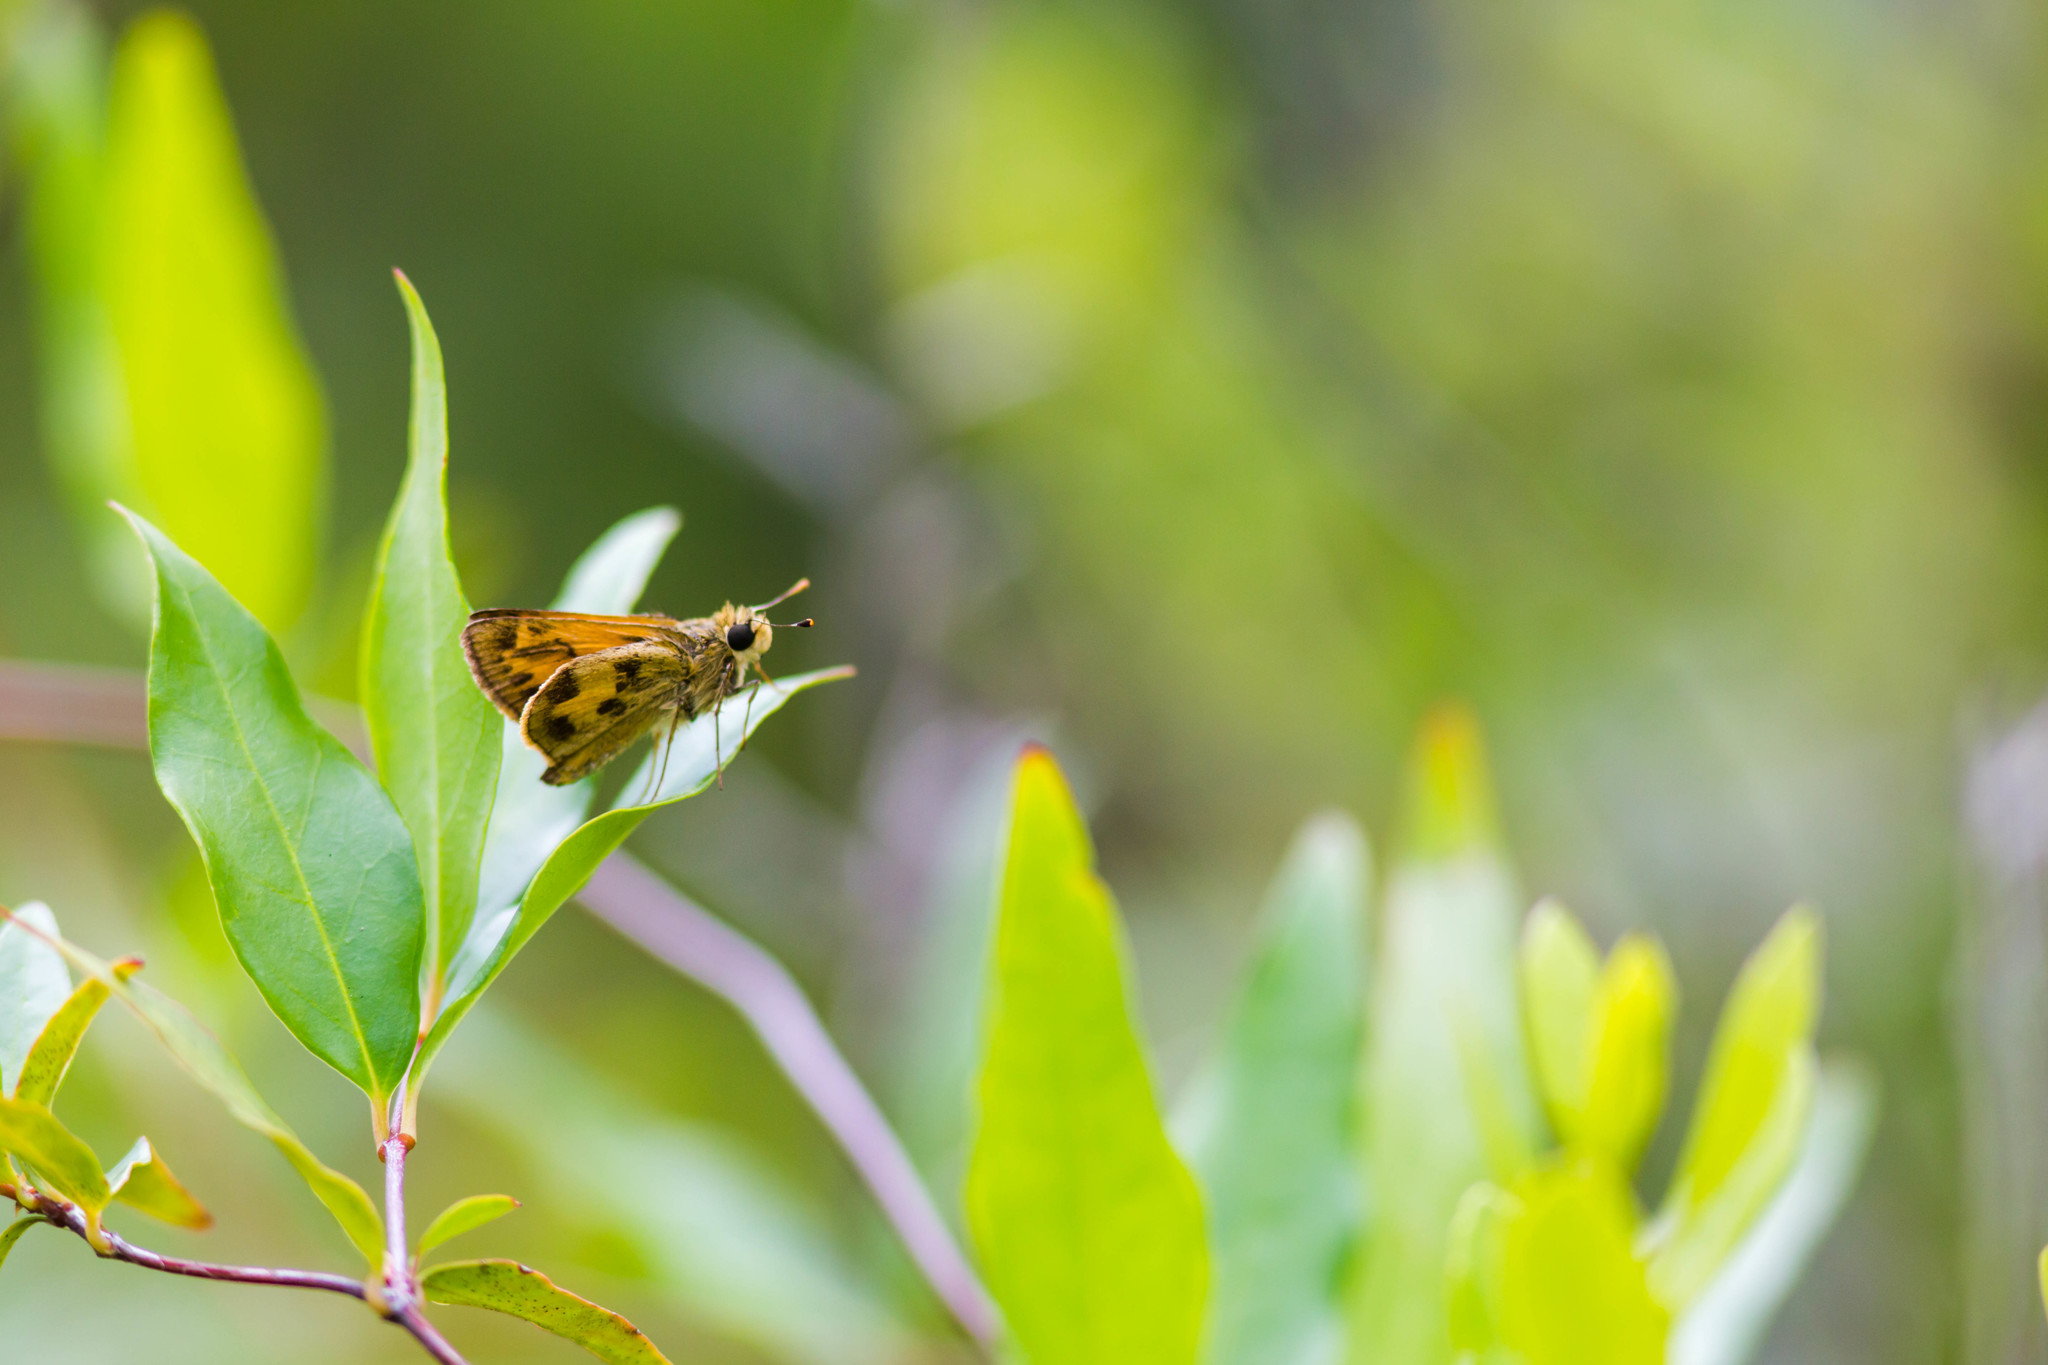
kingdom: Animalia
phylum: Arthropoda
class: Insecta
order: Lepidoptera
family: Hesperiidae
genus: Polites
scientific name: Polites vibex
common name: Whirlabout
